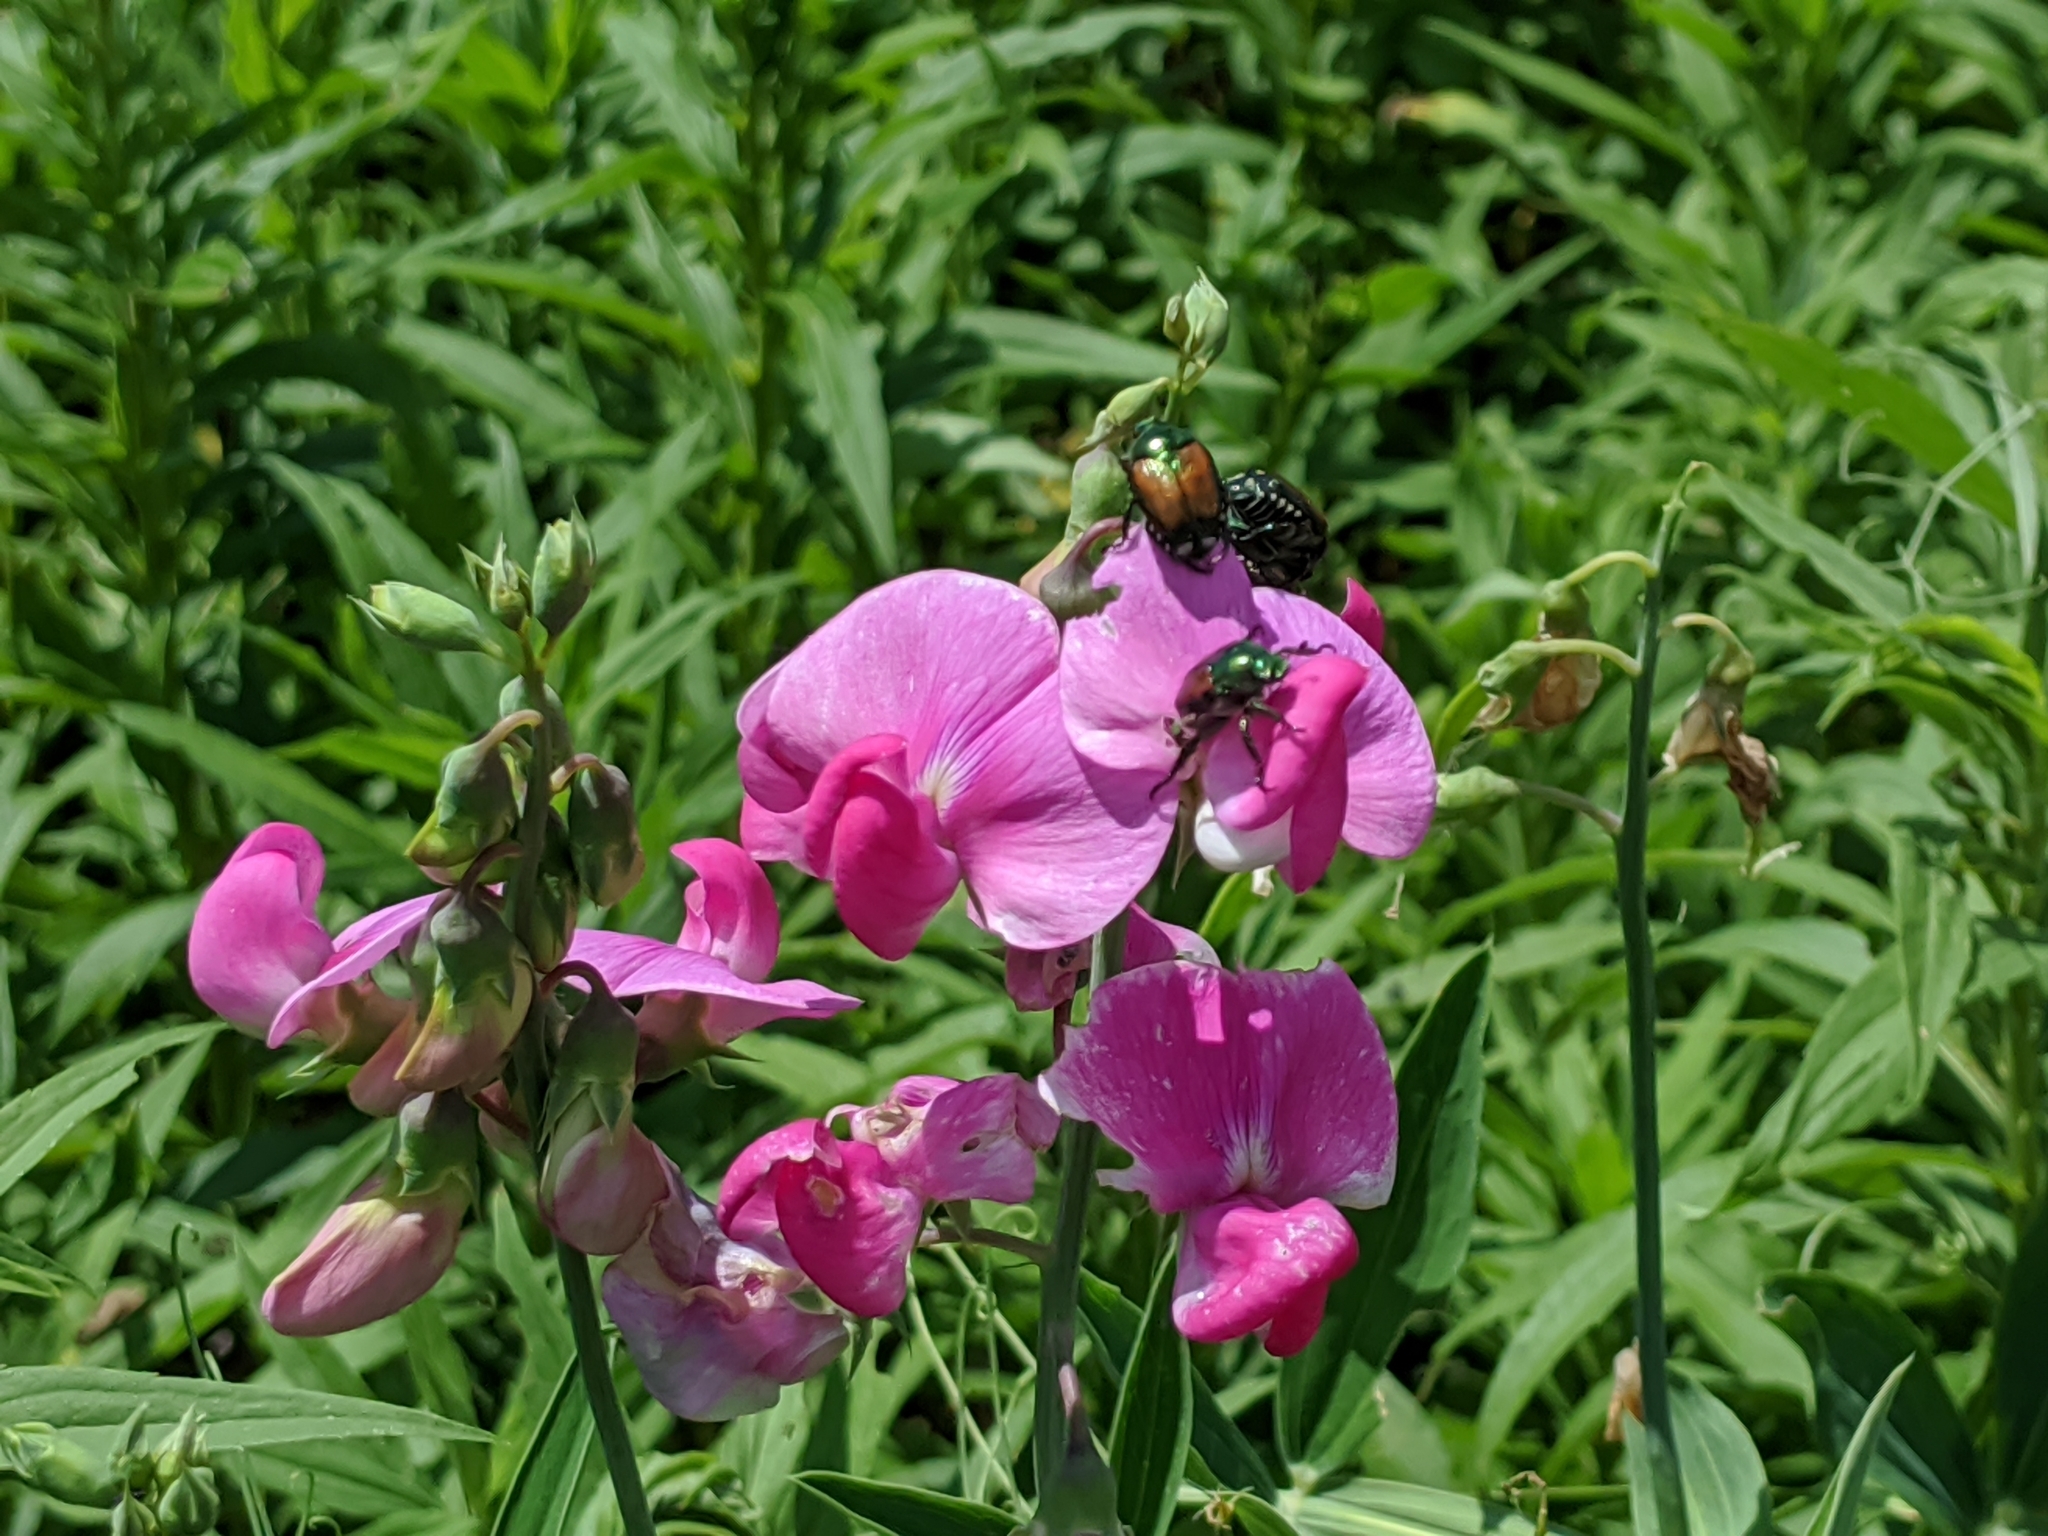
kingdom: Animalia
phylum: Arthropoda
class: Insecta
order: Coleoptera
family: Scarabaeidae
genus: Popillia
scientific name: Popillia japonica
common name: Japanese beetle
